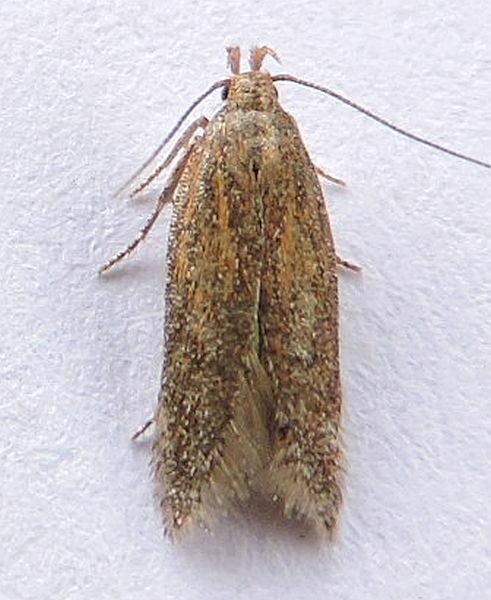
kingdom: Animalia
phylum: Arthropoda
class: Insecta
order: Lepidoptera
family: Gelechiidae
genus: Scrobipalpa
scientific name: Scrobipalpa acuminatella
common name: Pointed groundling
